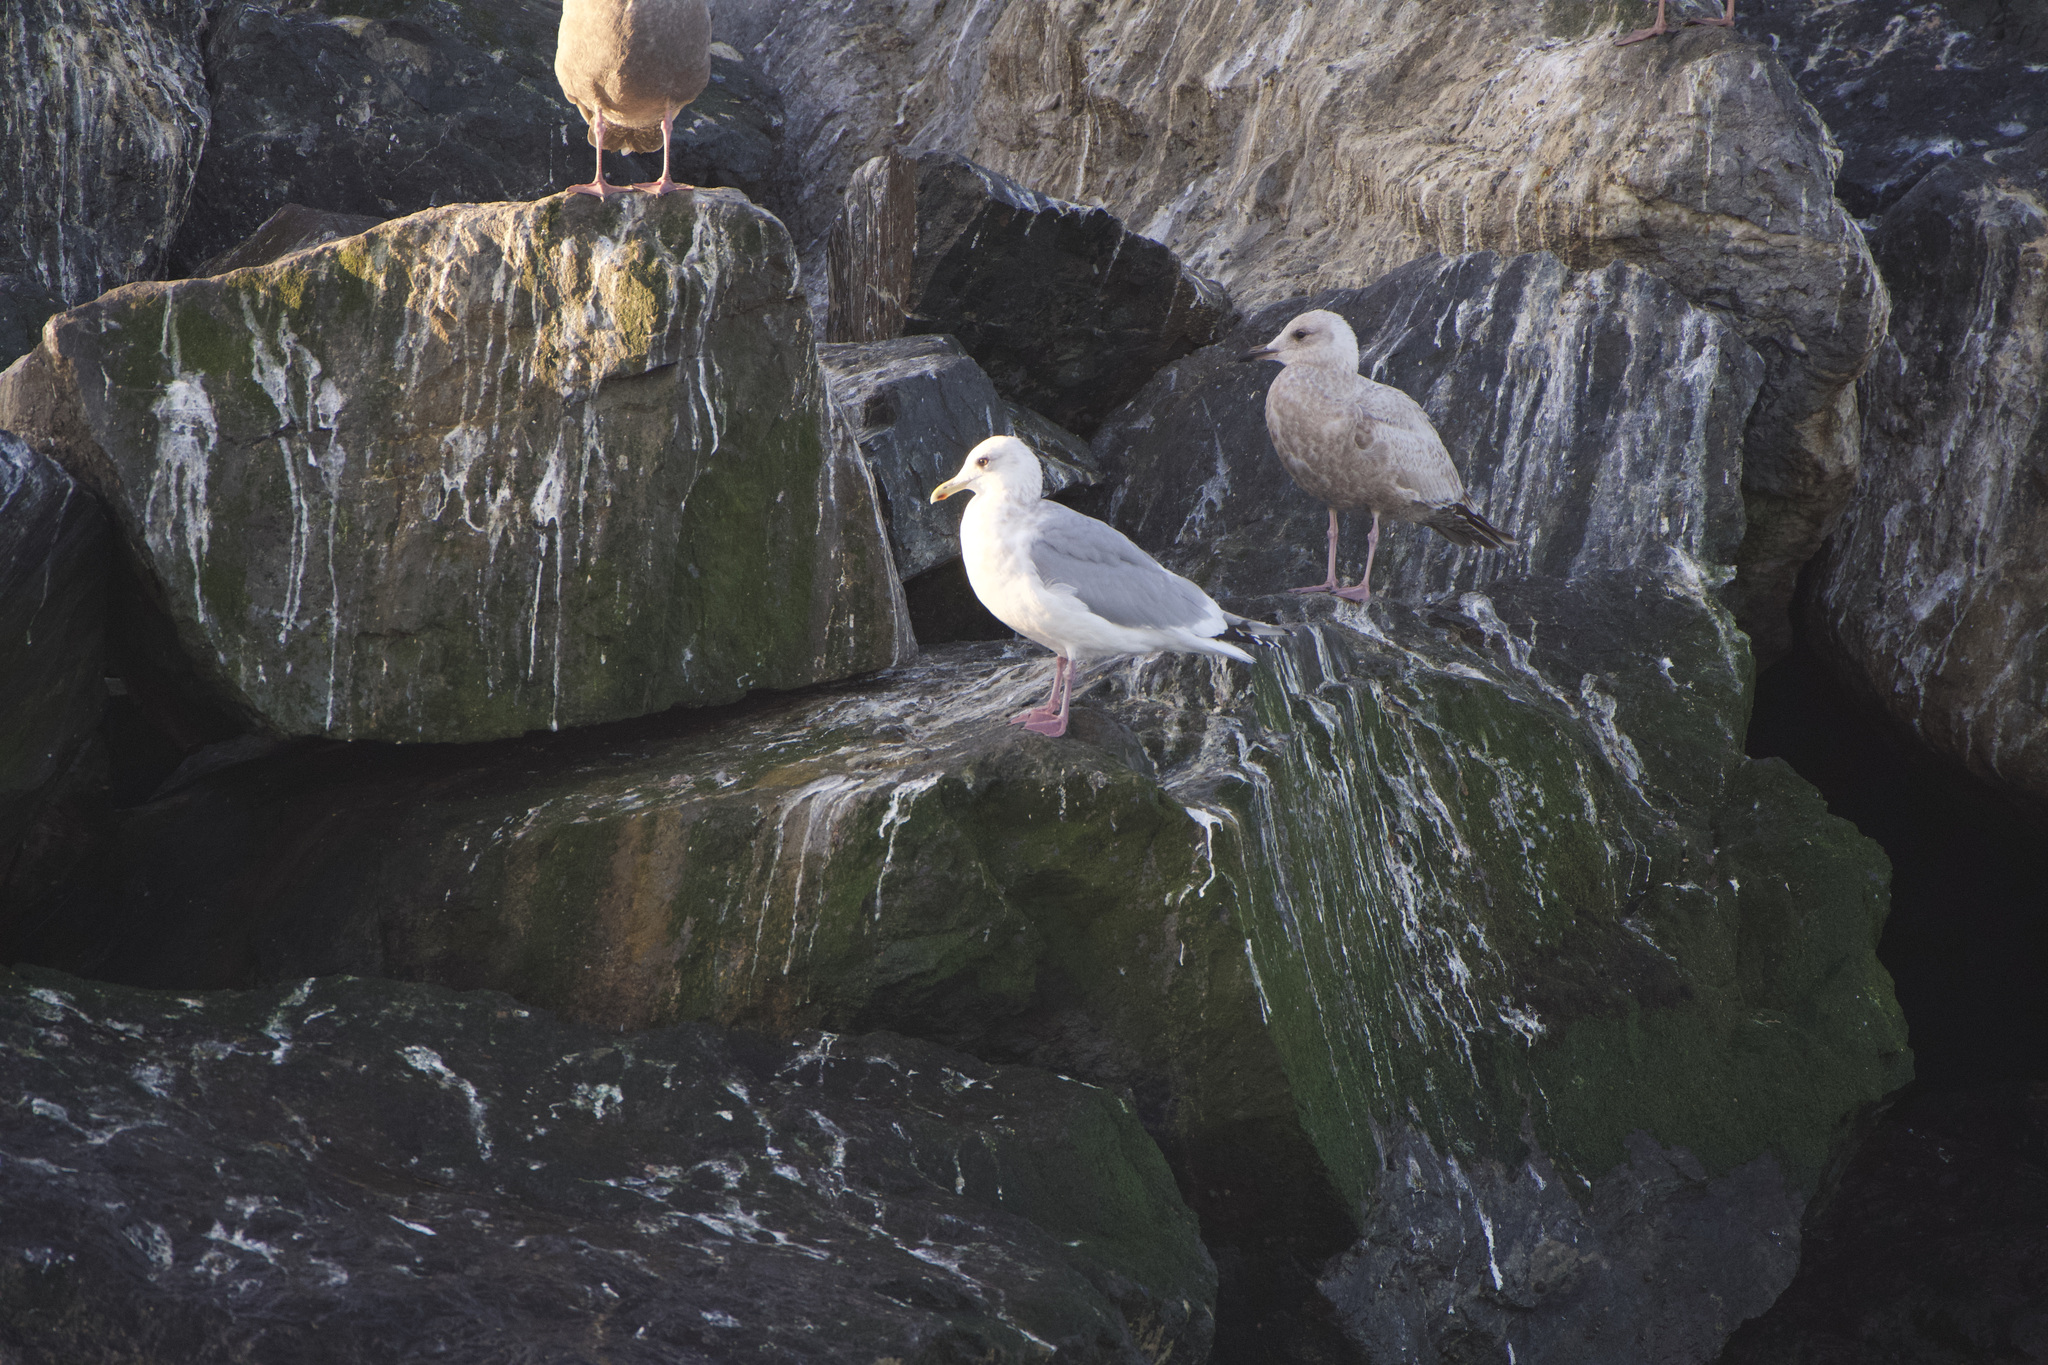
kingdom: Animalia
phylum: Chordata
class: Aves
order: Charadriiformes
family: Laridae
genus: Larus
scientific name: Larus glaucoides
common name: Iceland gull
